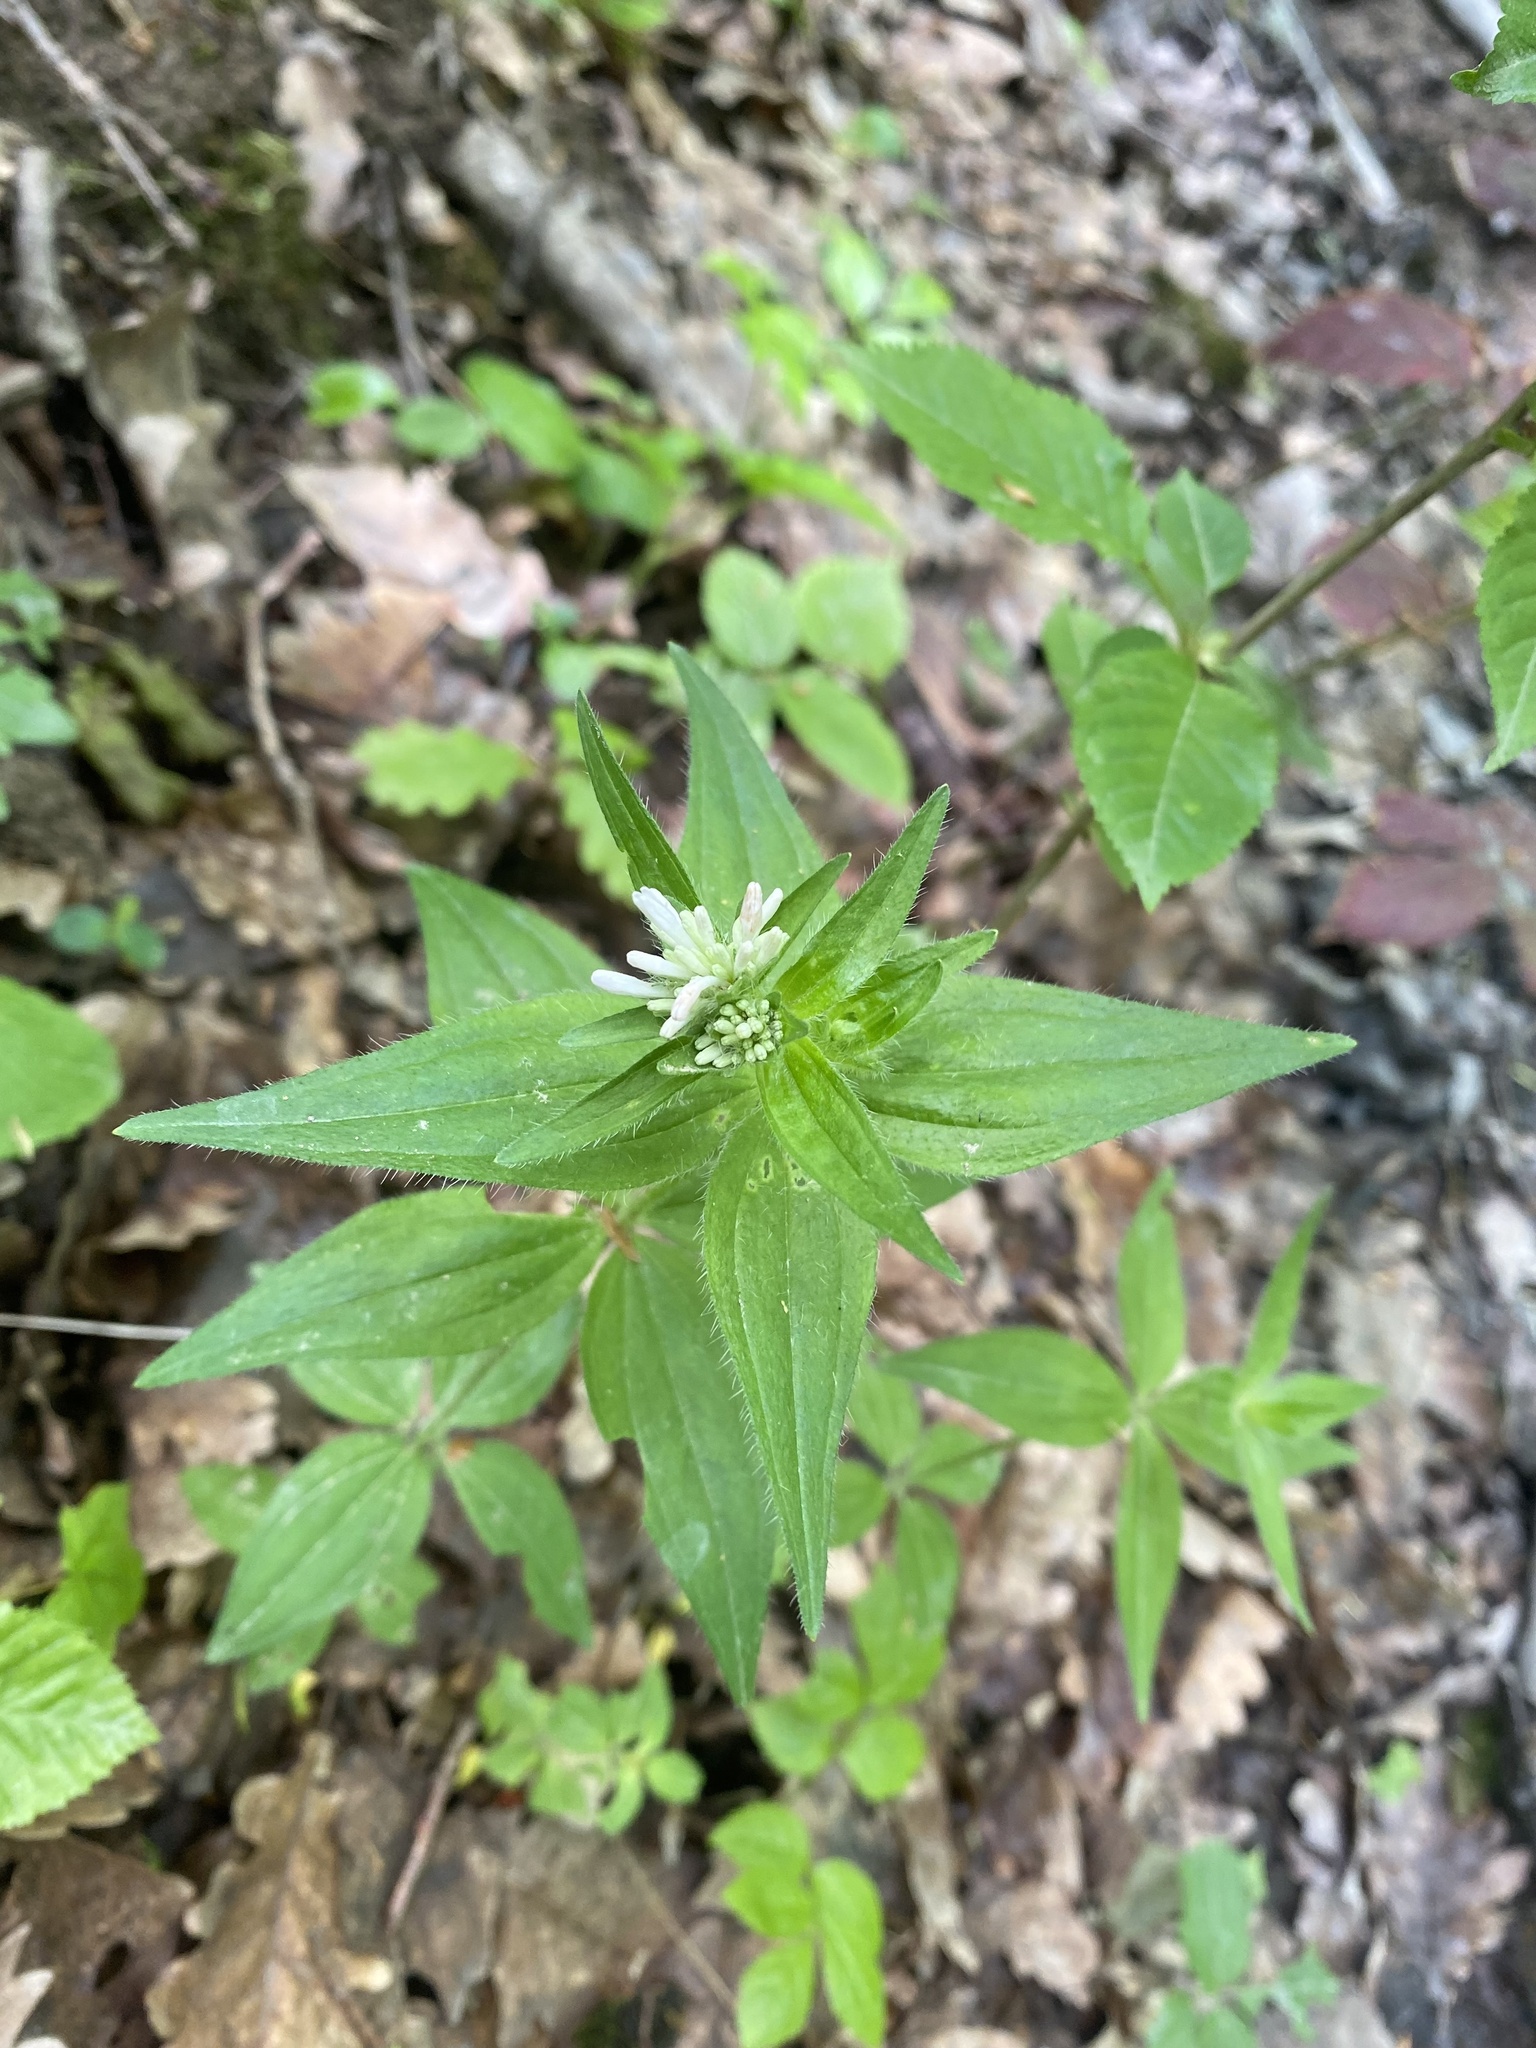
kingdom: Plantae
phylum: Tracheophyta
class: Magnoliopsida
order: Gentianales
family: Rubiaceae
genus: Asperula
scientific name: Asperula taurina
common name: Pink woodruff
